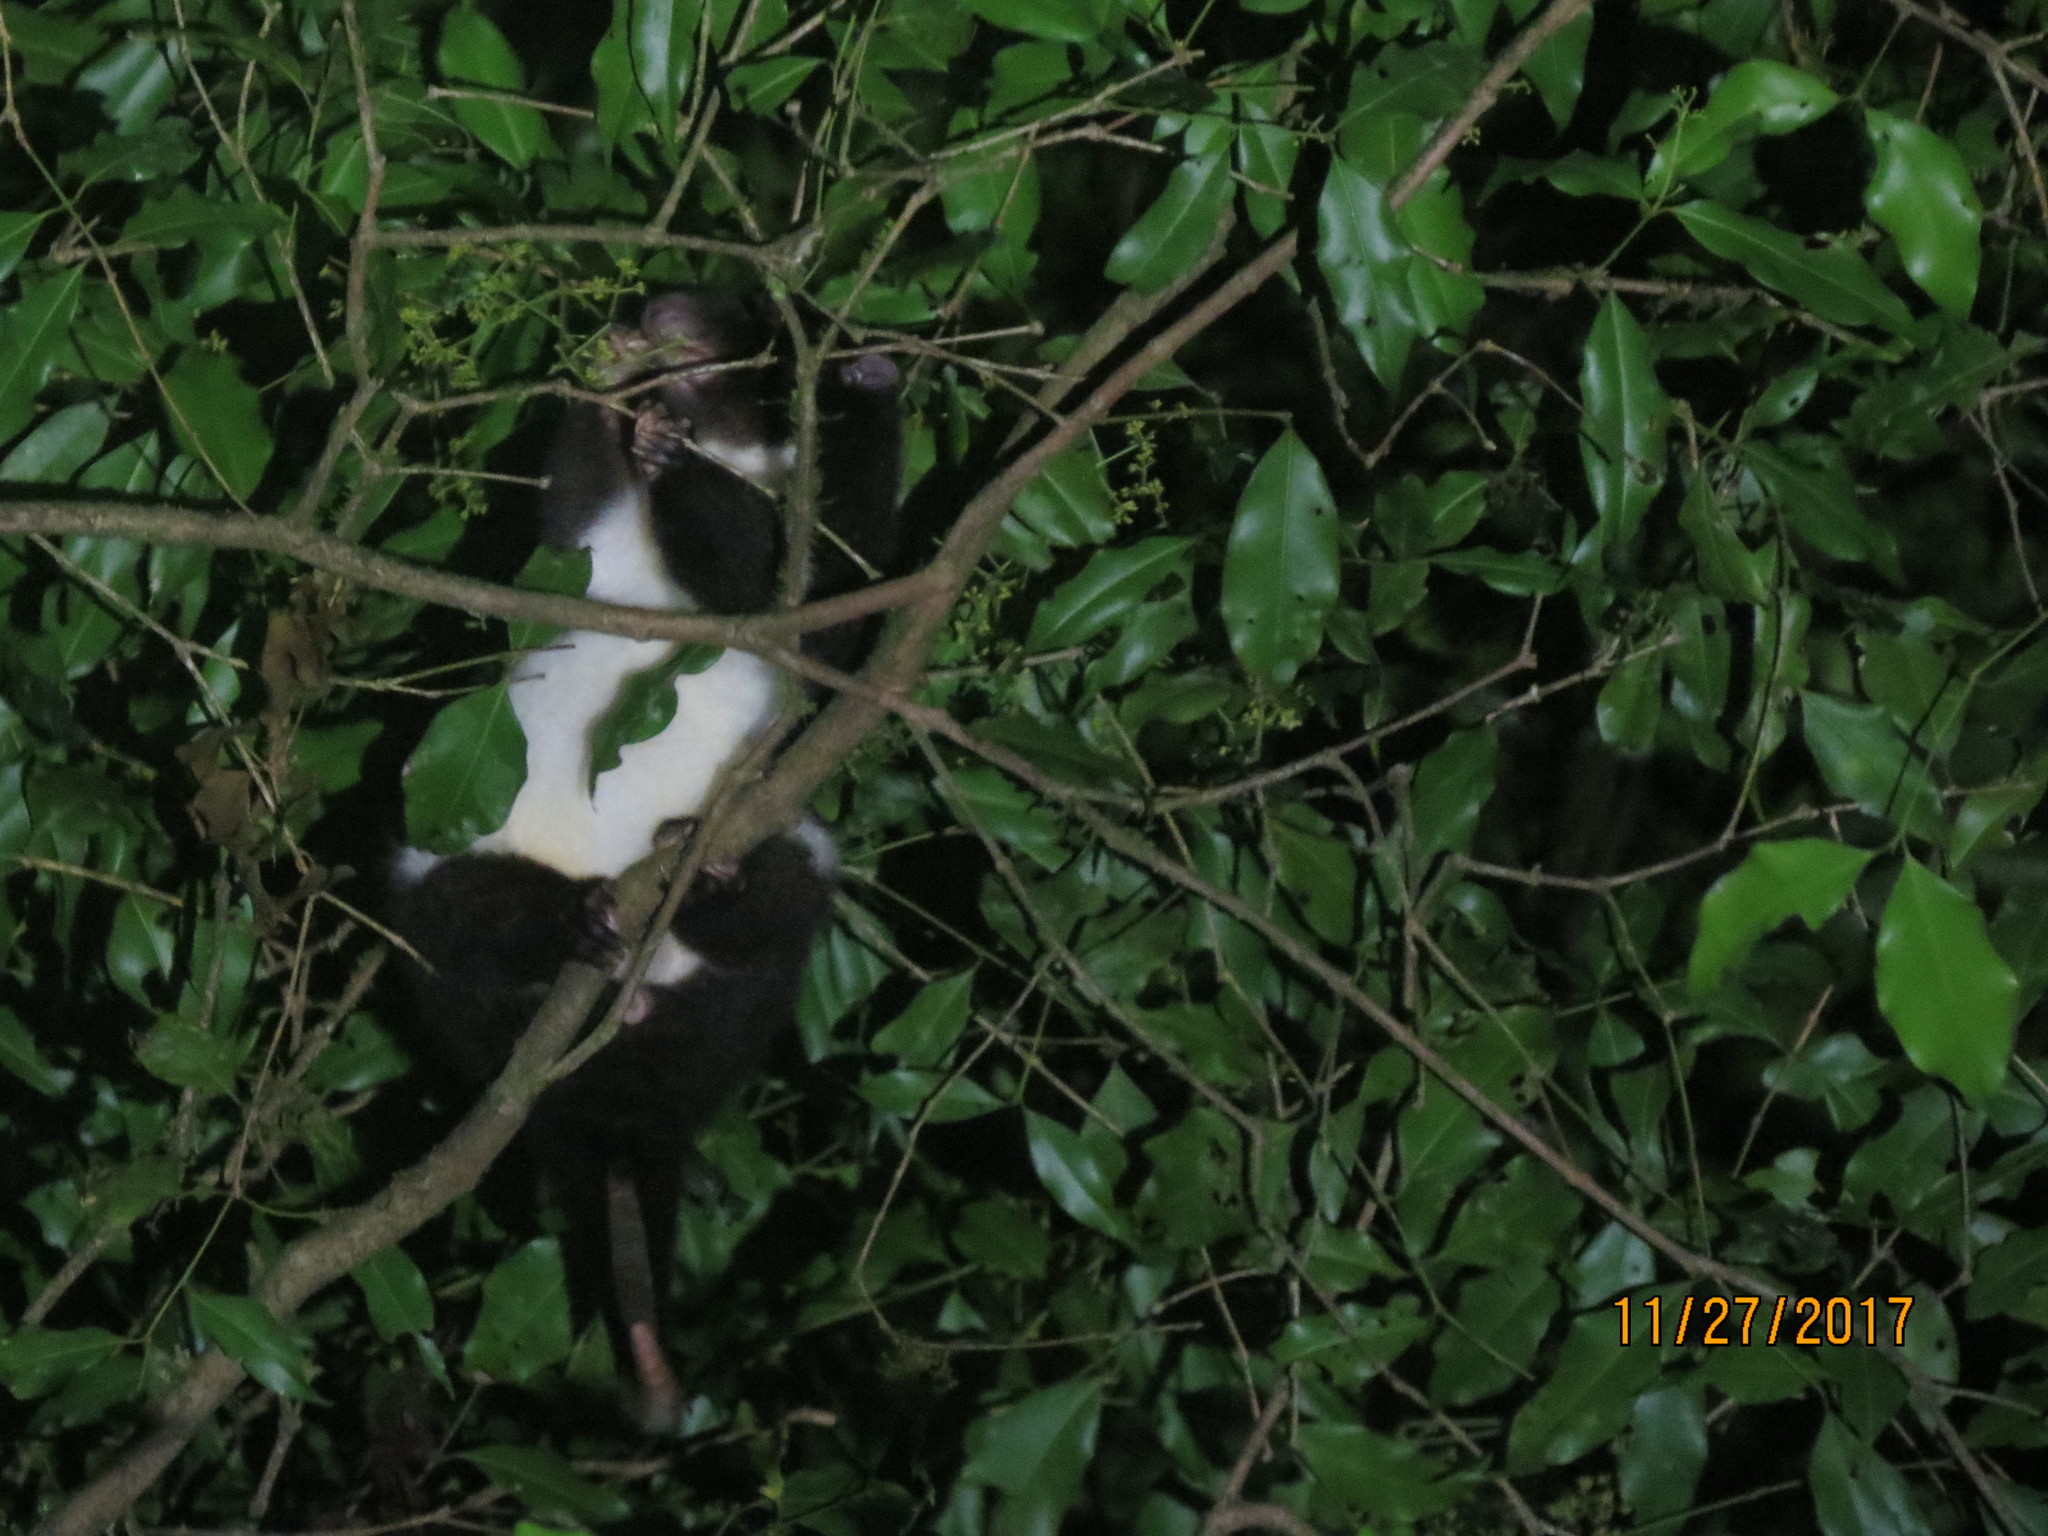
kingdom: Animalia
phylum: Chordata
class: Mammalia
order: Diprotodontia
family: Pseudocheiridae
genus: Pseudochirulus
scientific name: Pseudochirulus herbertensis
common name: Herbert river ringtail
